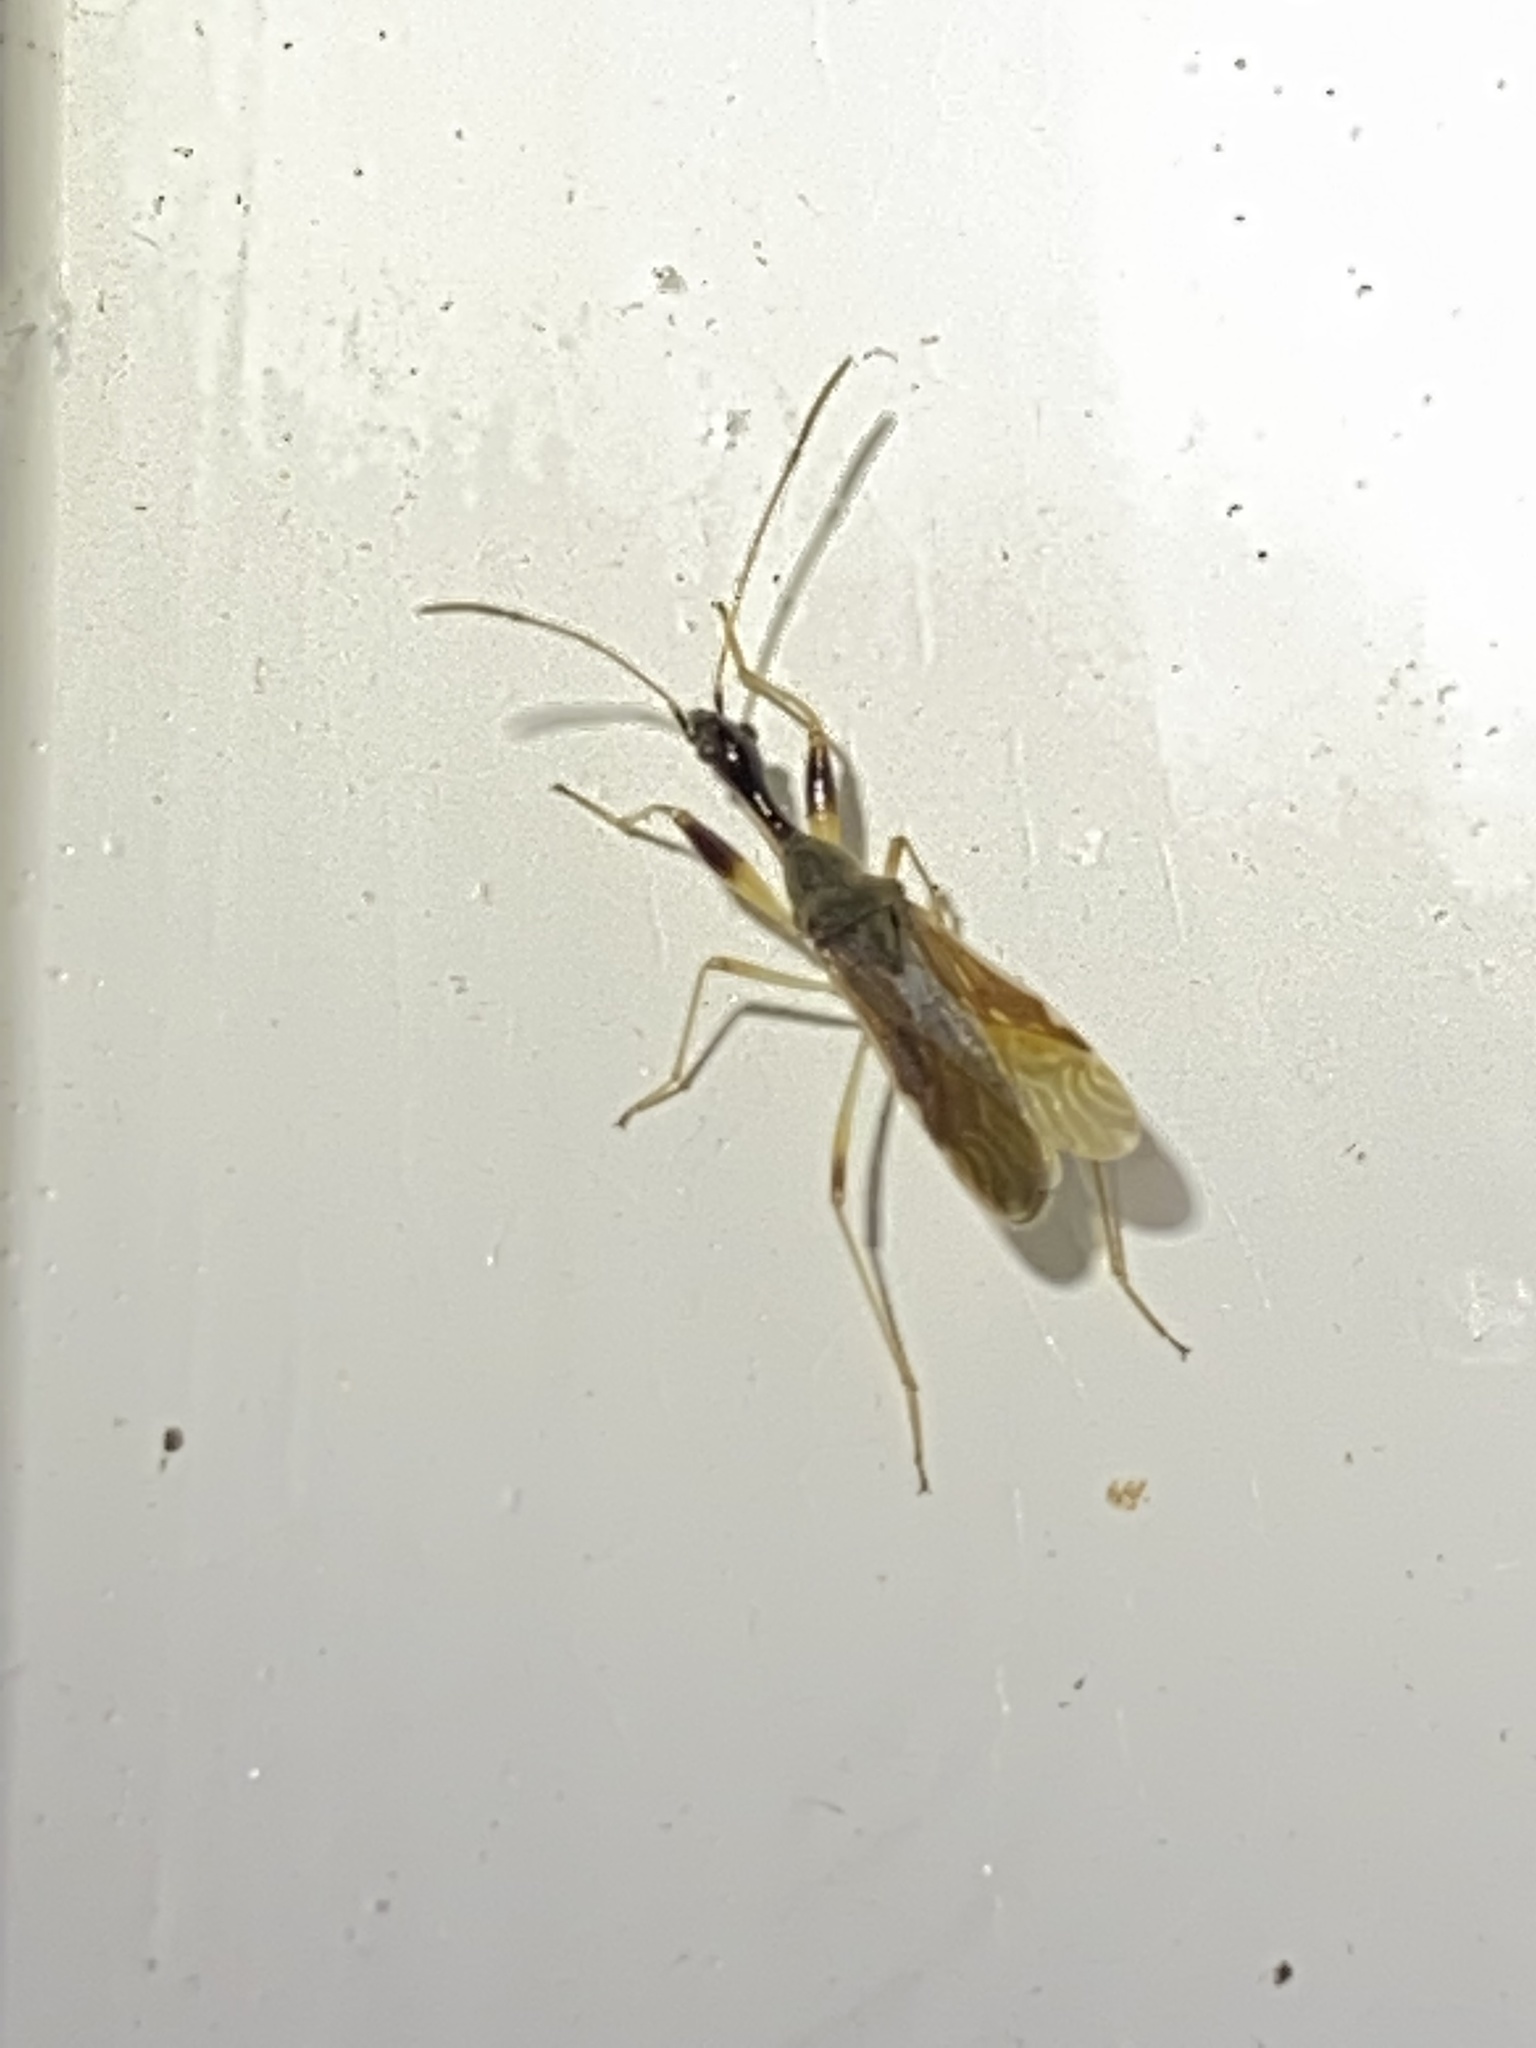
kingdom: Animalia
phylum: Arthropoda
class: Insecta
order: Hemiptera
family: Rhyparochromidae
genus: Myodocha
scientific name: Myodocha serripes
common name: Long-necked seed bug
